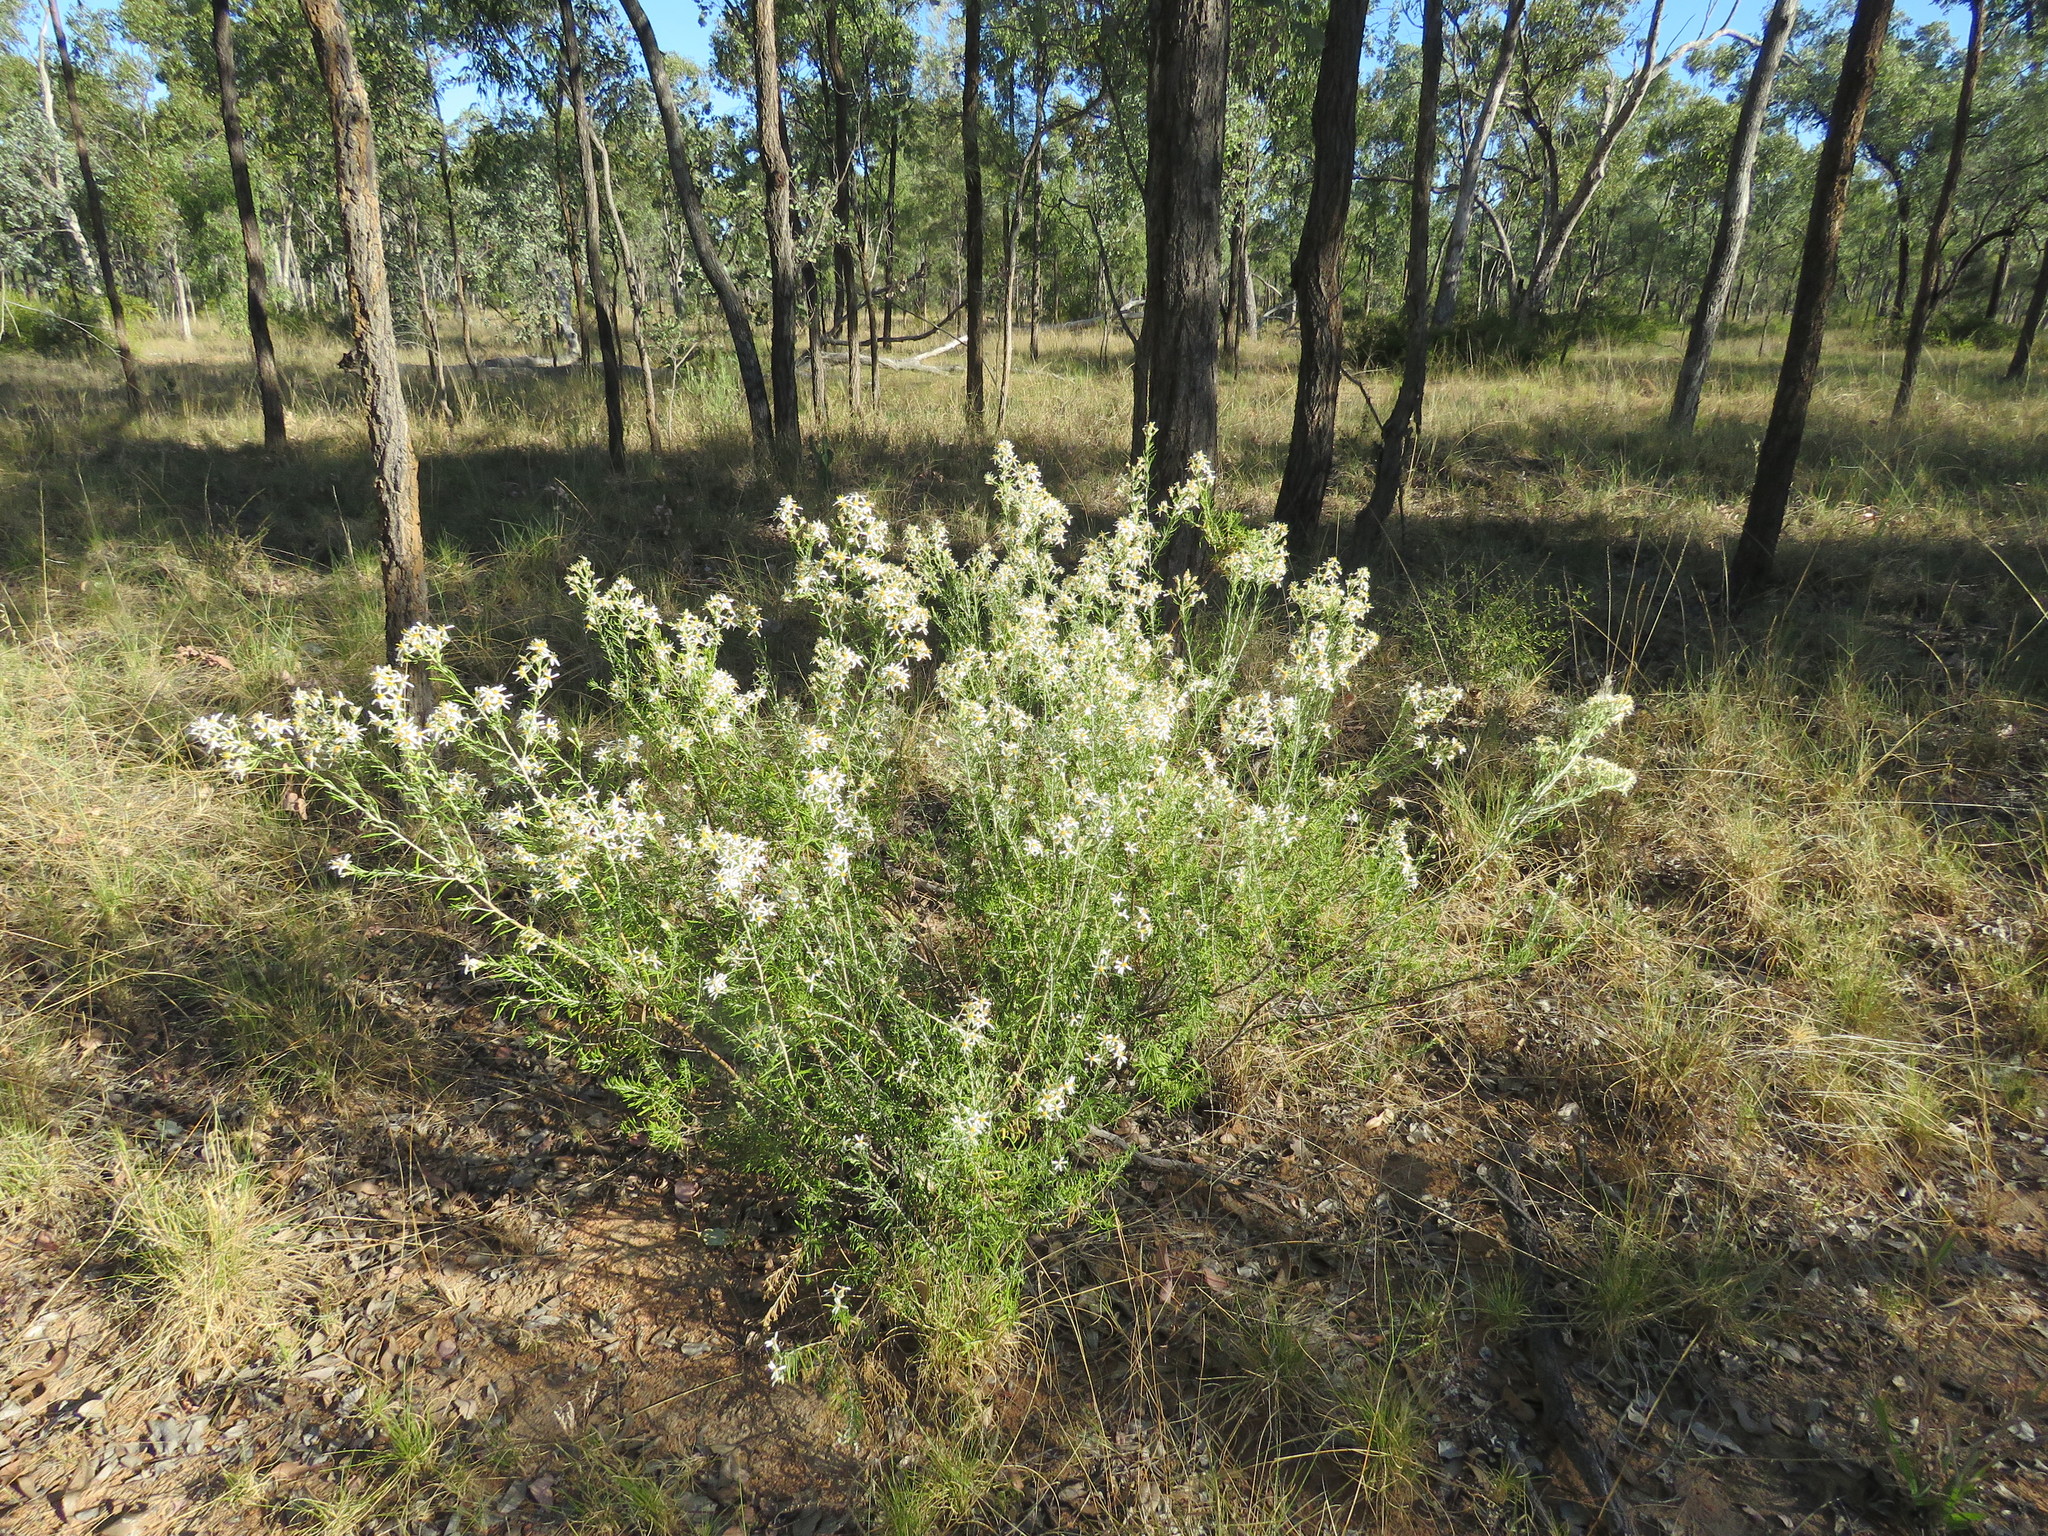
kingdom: Plantae
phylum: Tracheophyta
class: Magnoliopsida
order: Asterales
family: Asteraceae
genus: Olearia
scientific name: Olearia subspicata
